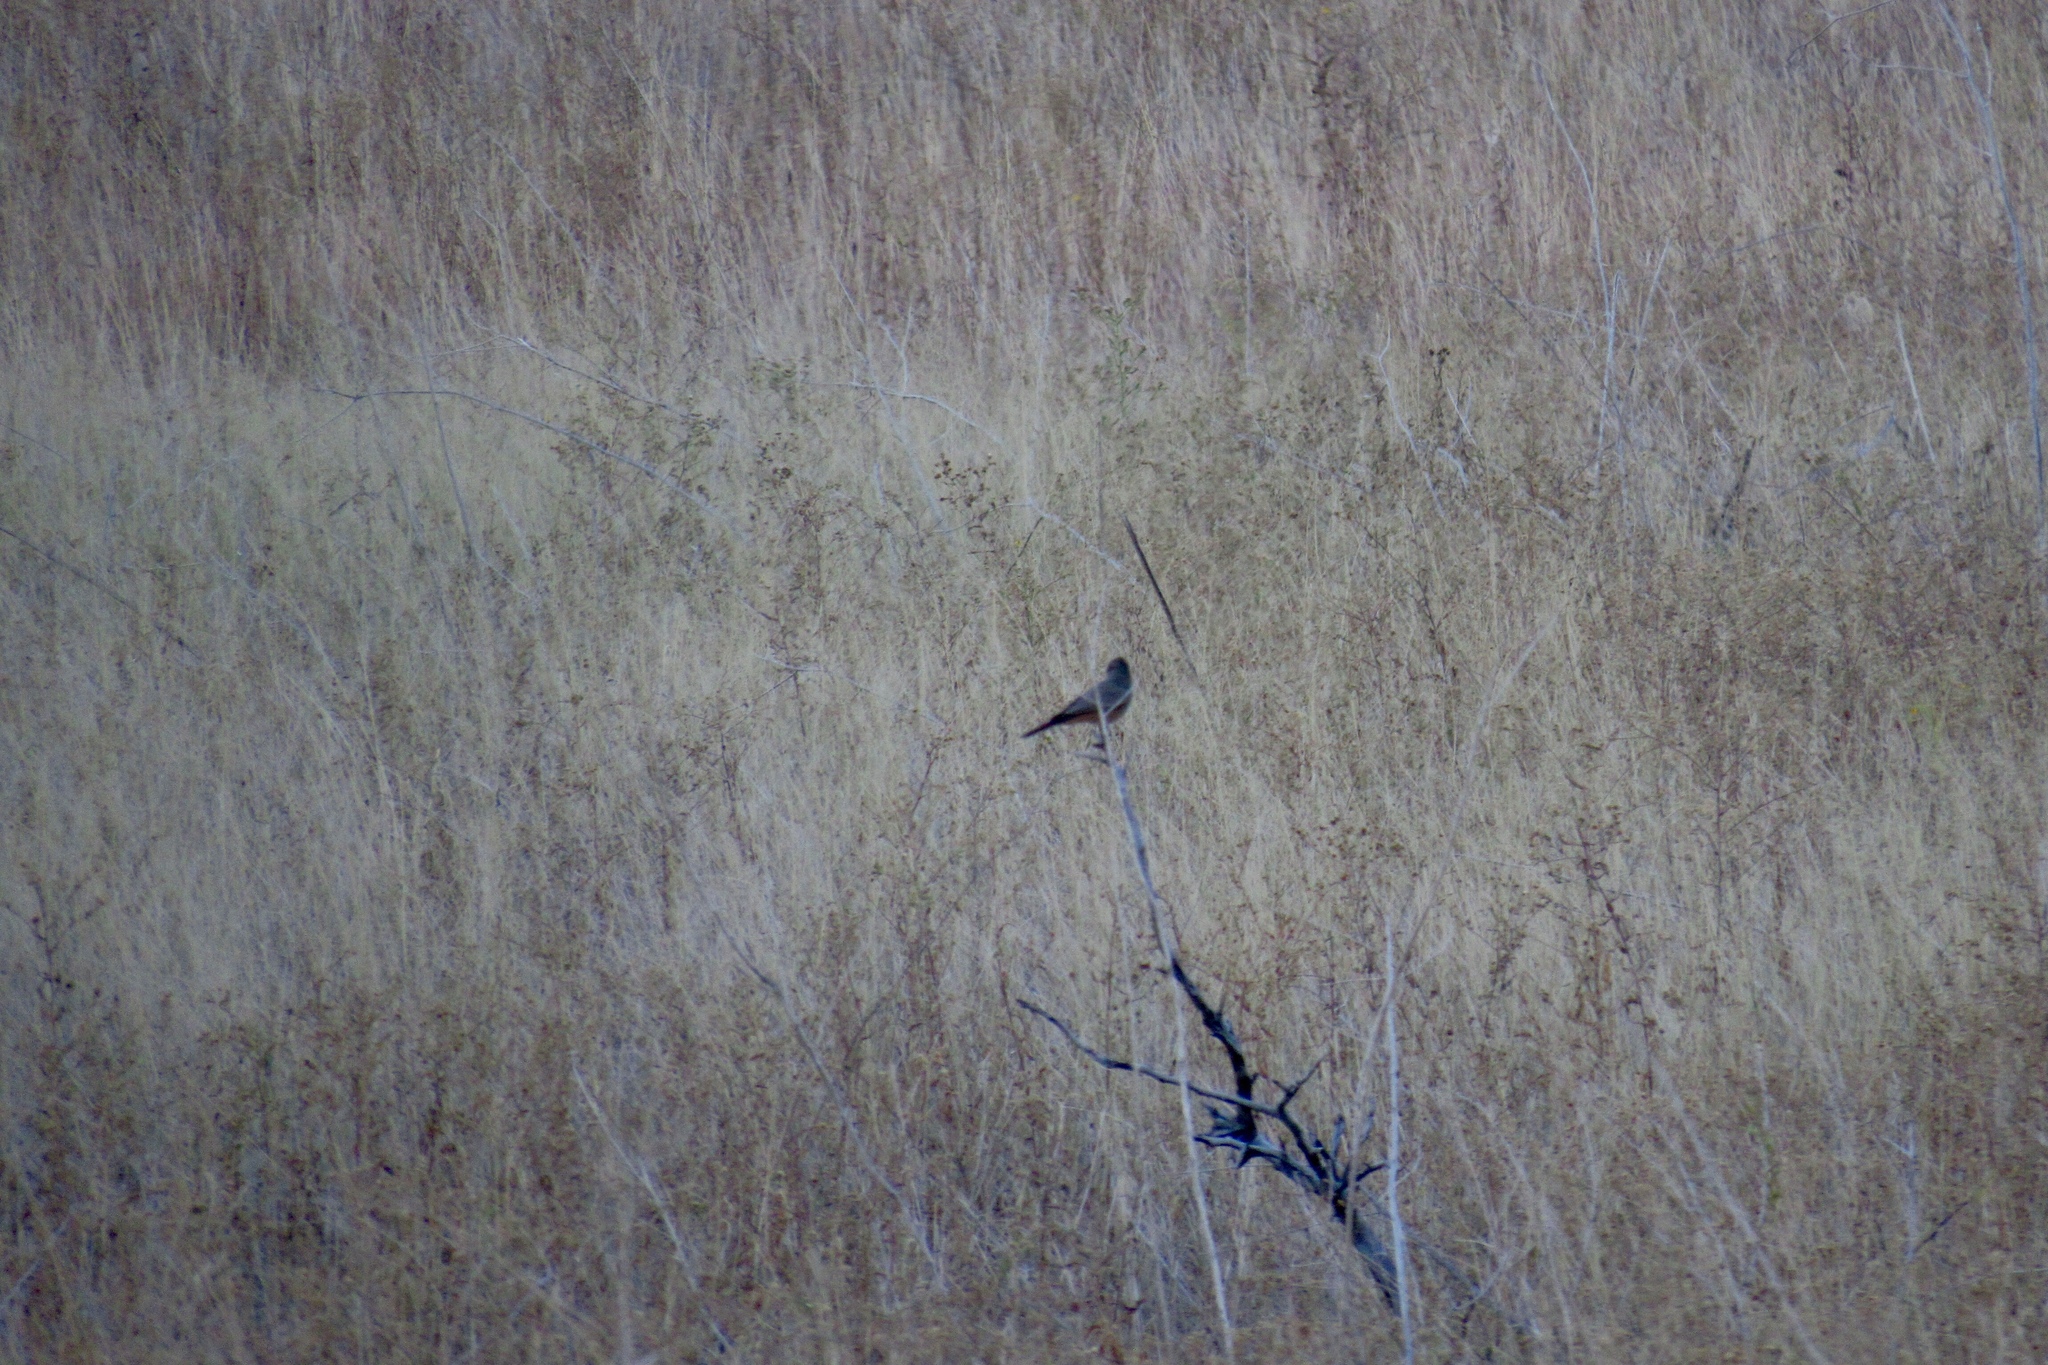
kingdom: Animalia
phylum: Chordata
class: Aves
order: Passeriformes
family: Tyrannidae
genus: Sayornis
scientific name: Sayornis saya
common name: Say's phoebe
